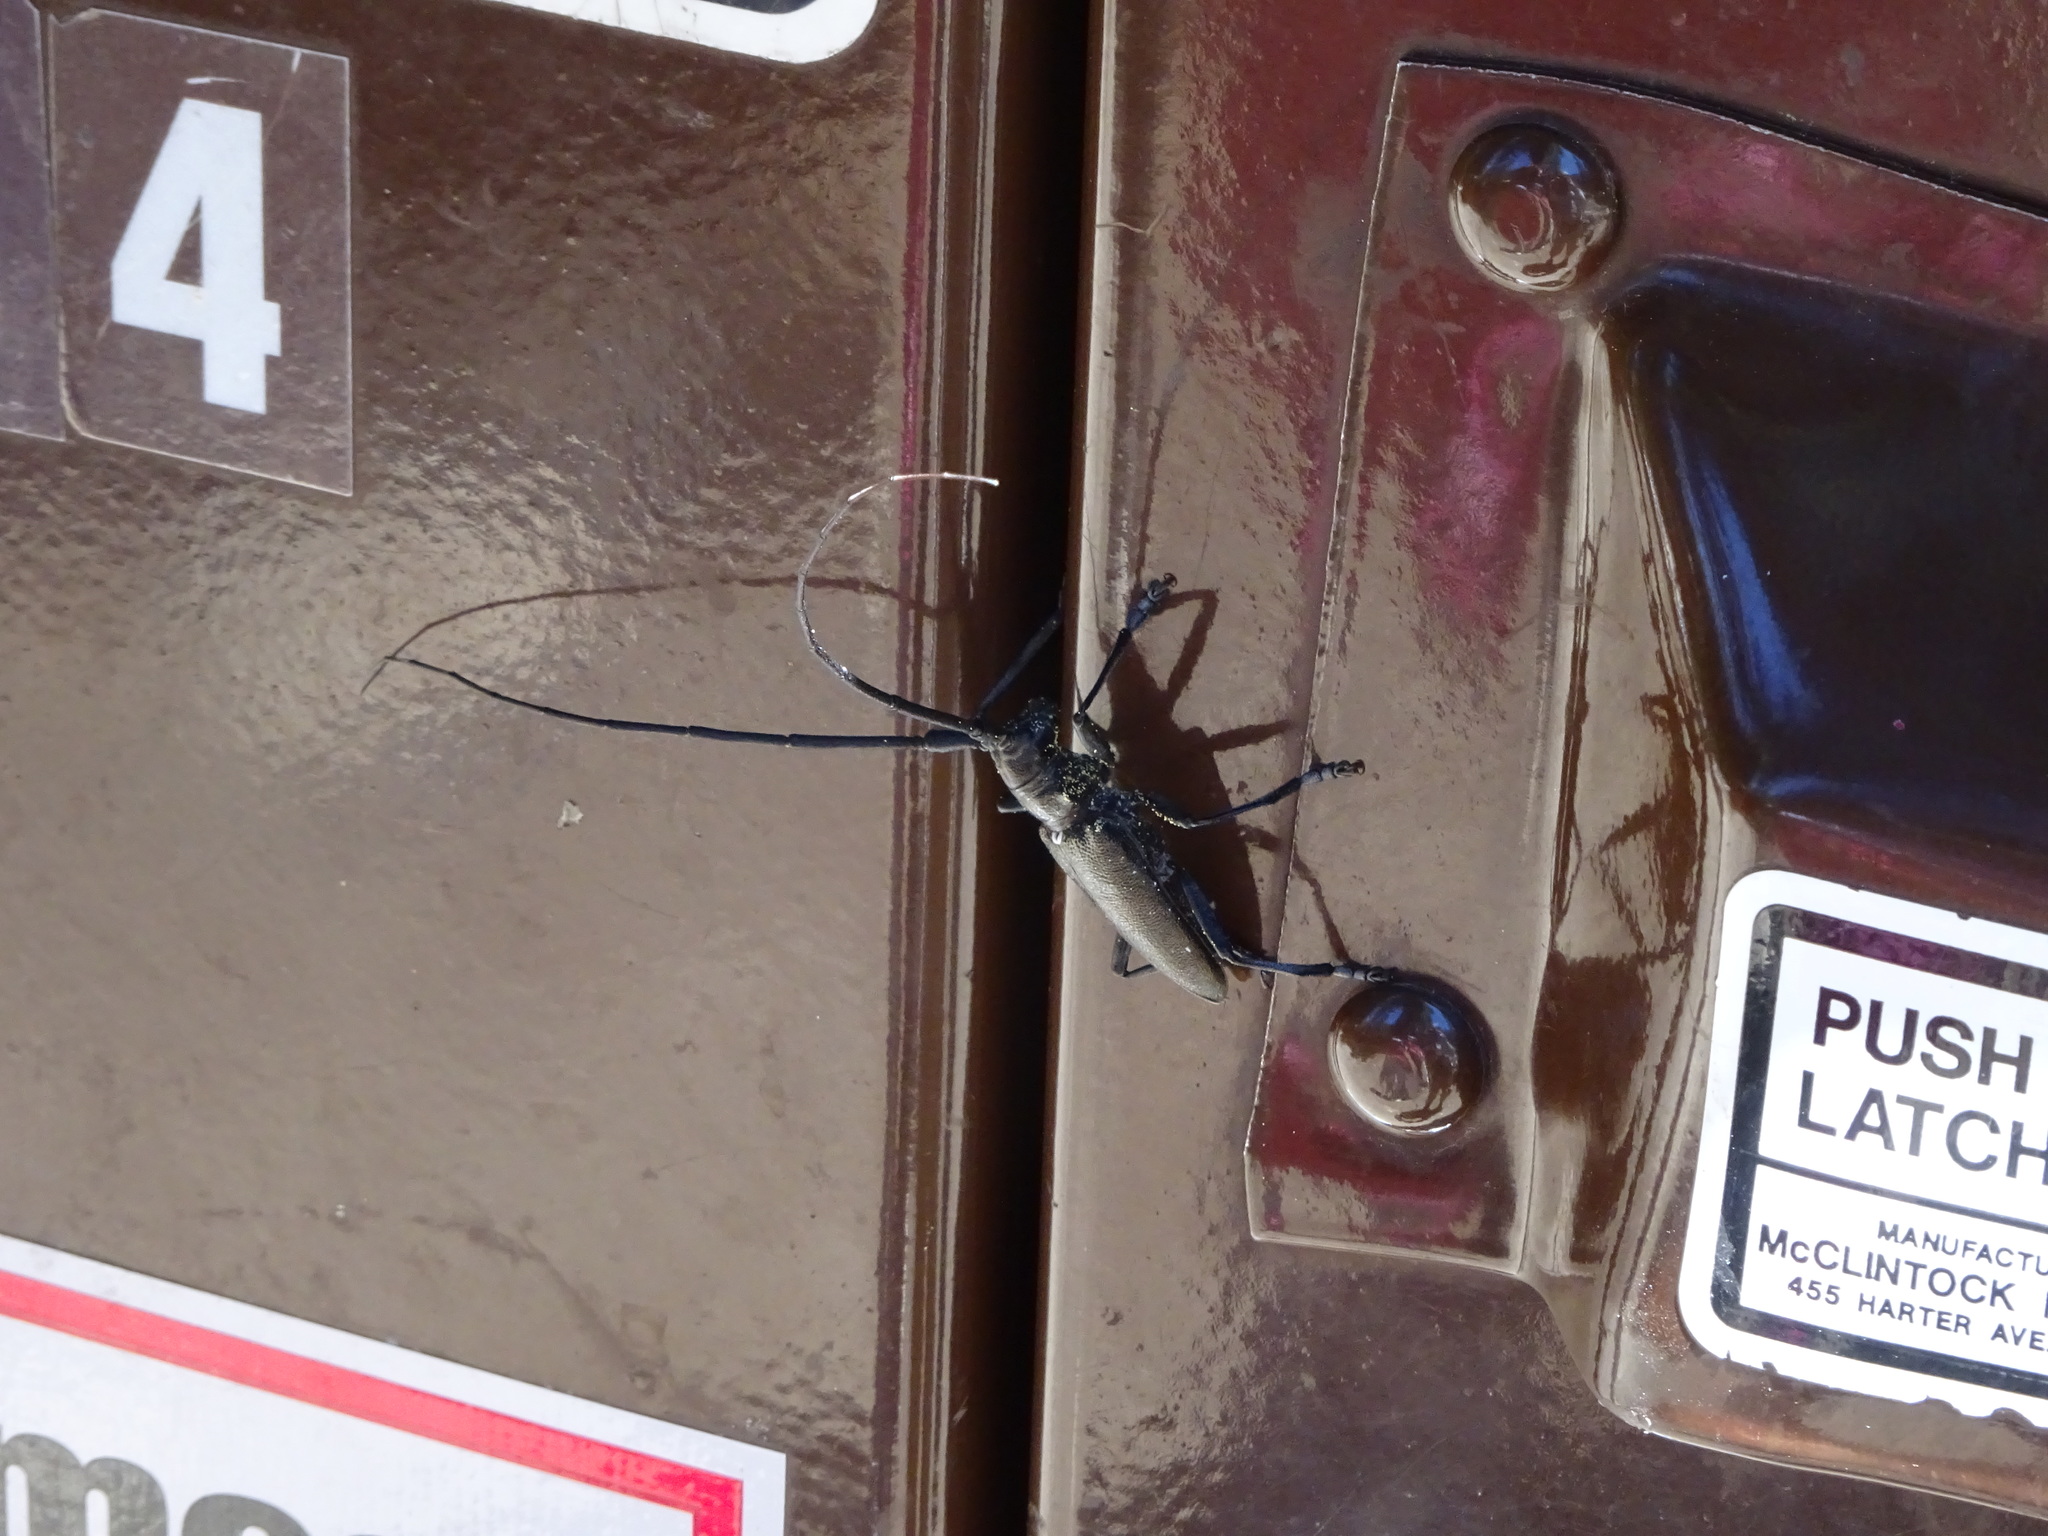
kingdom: Animalia
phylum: Arthropoda
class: Insecta
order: Coleoptera
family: Cerambycidae
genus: Monochamus
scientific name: Monochamus scutellatus
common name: White-spotted sawyer beetle
